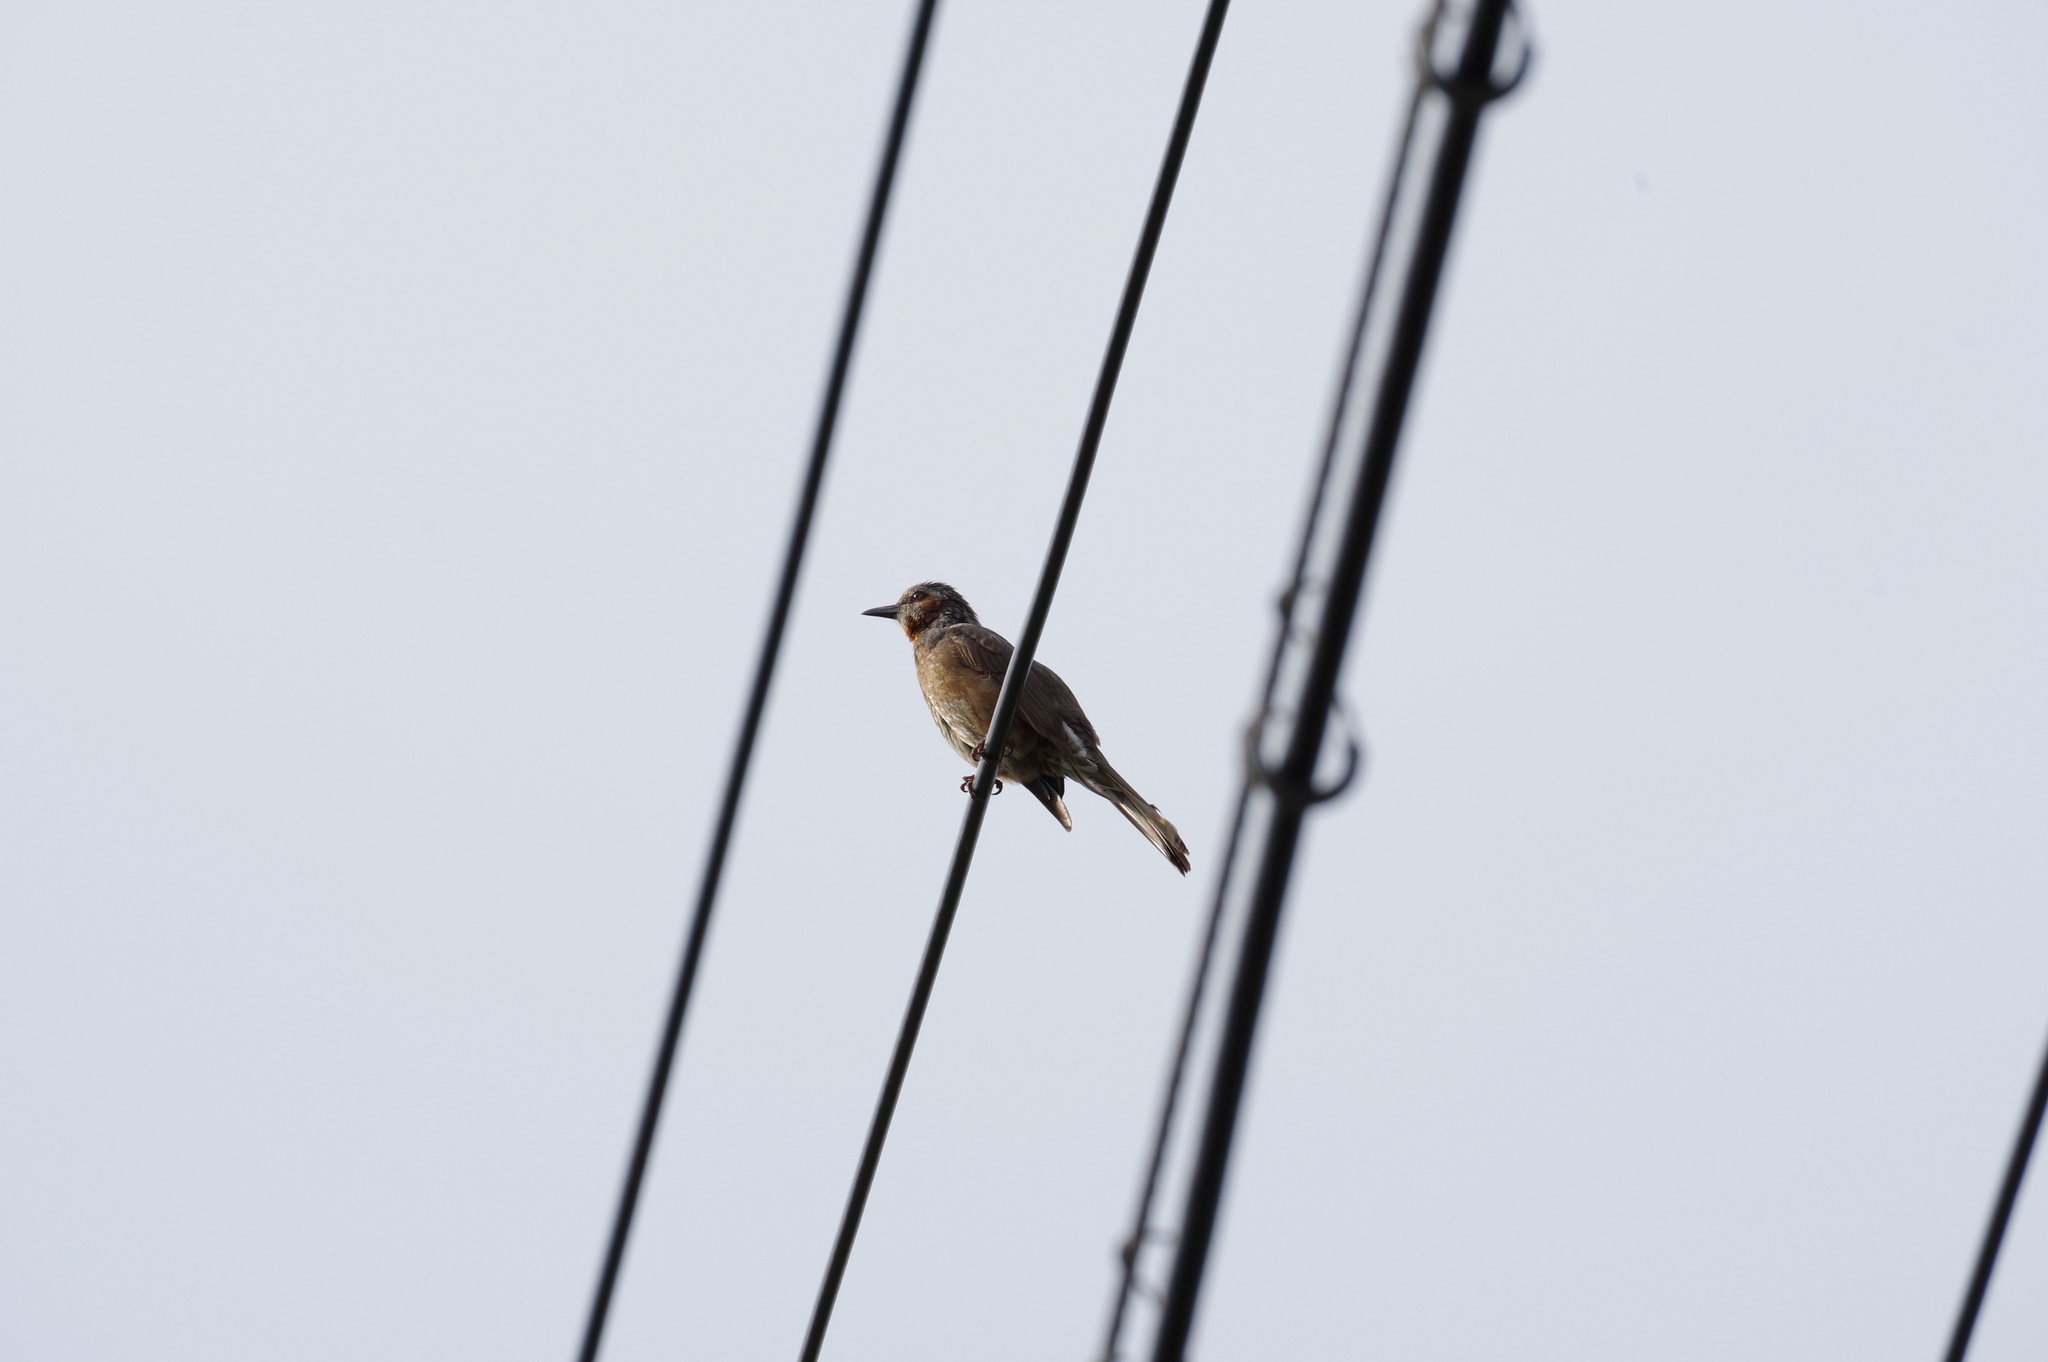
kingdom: Animalia
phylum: Chordata
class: Aves
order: Passeriformes
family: Pycnonotidae
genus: Hypsipetes
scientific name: Hypsipetes amaurotis
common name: Brown-eared bulbul
